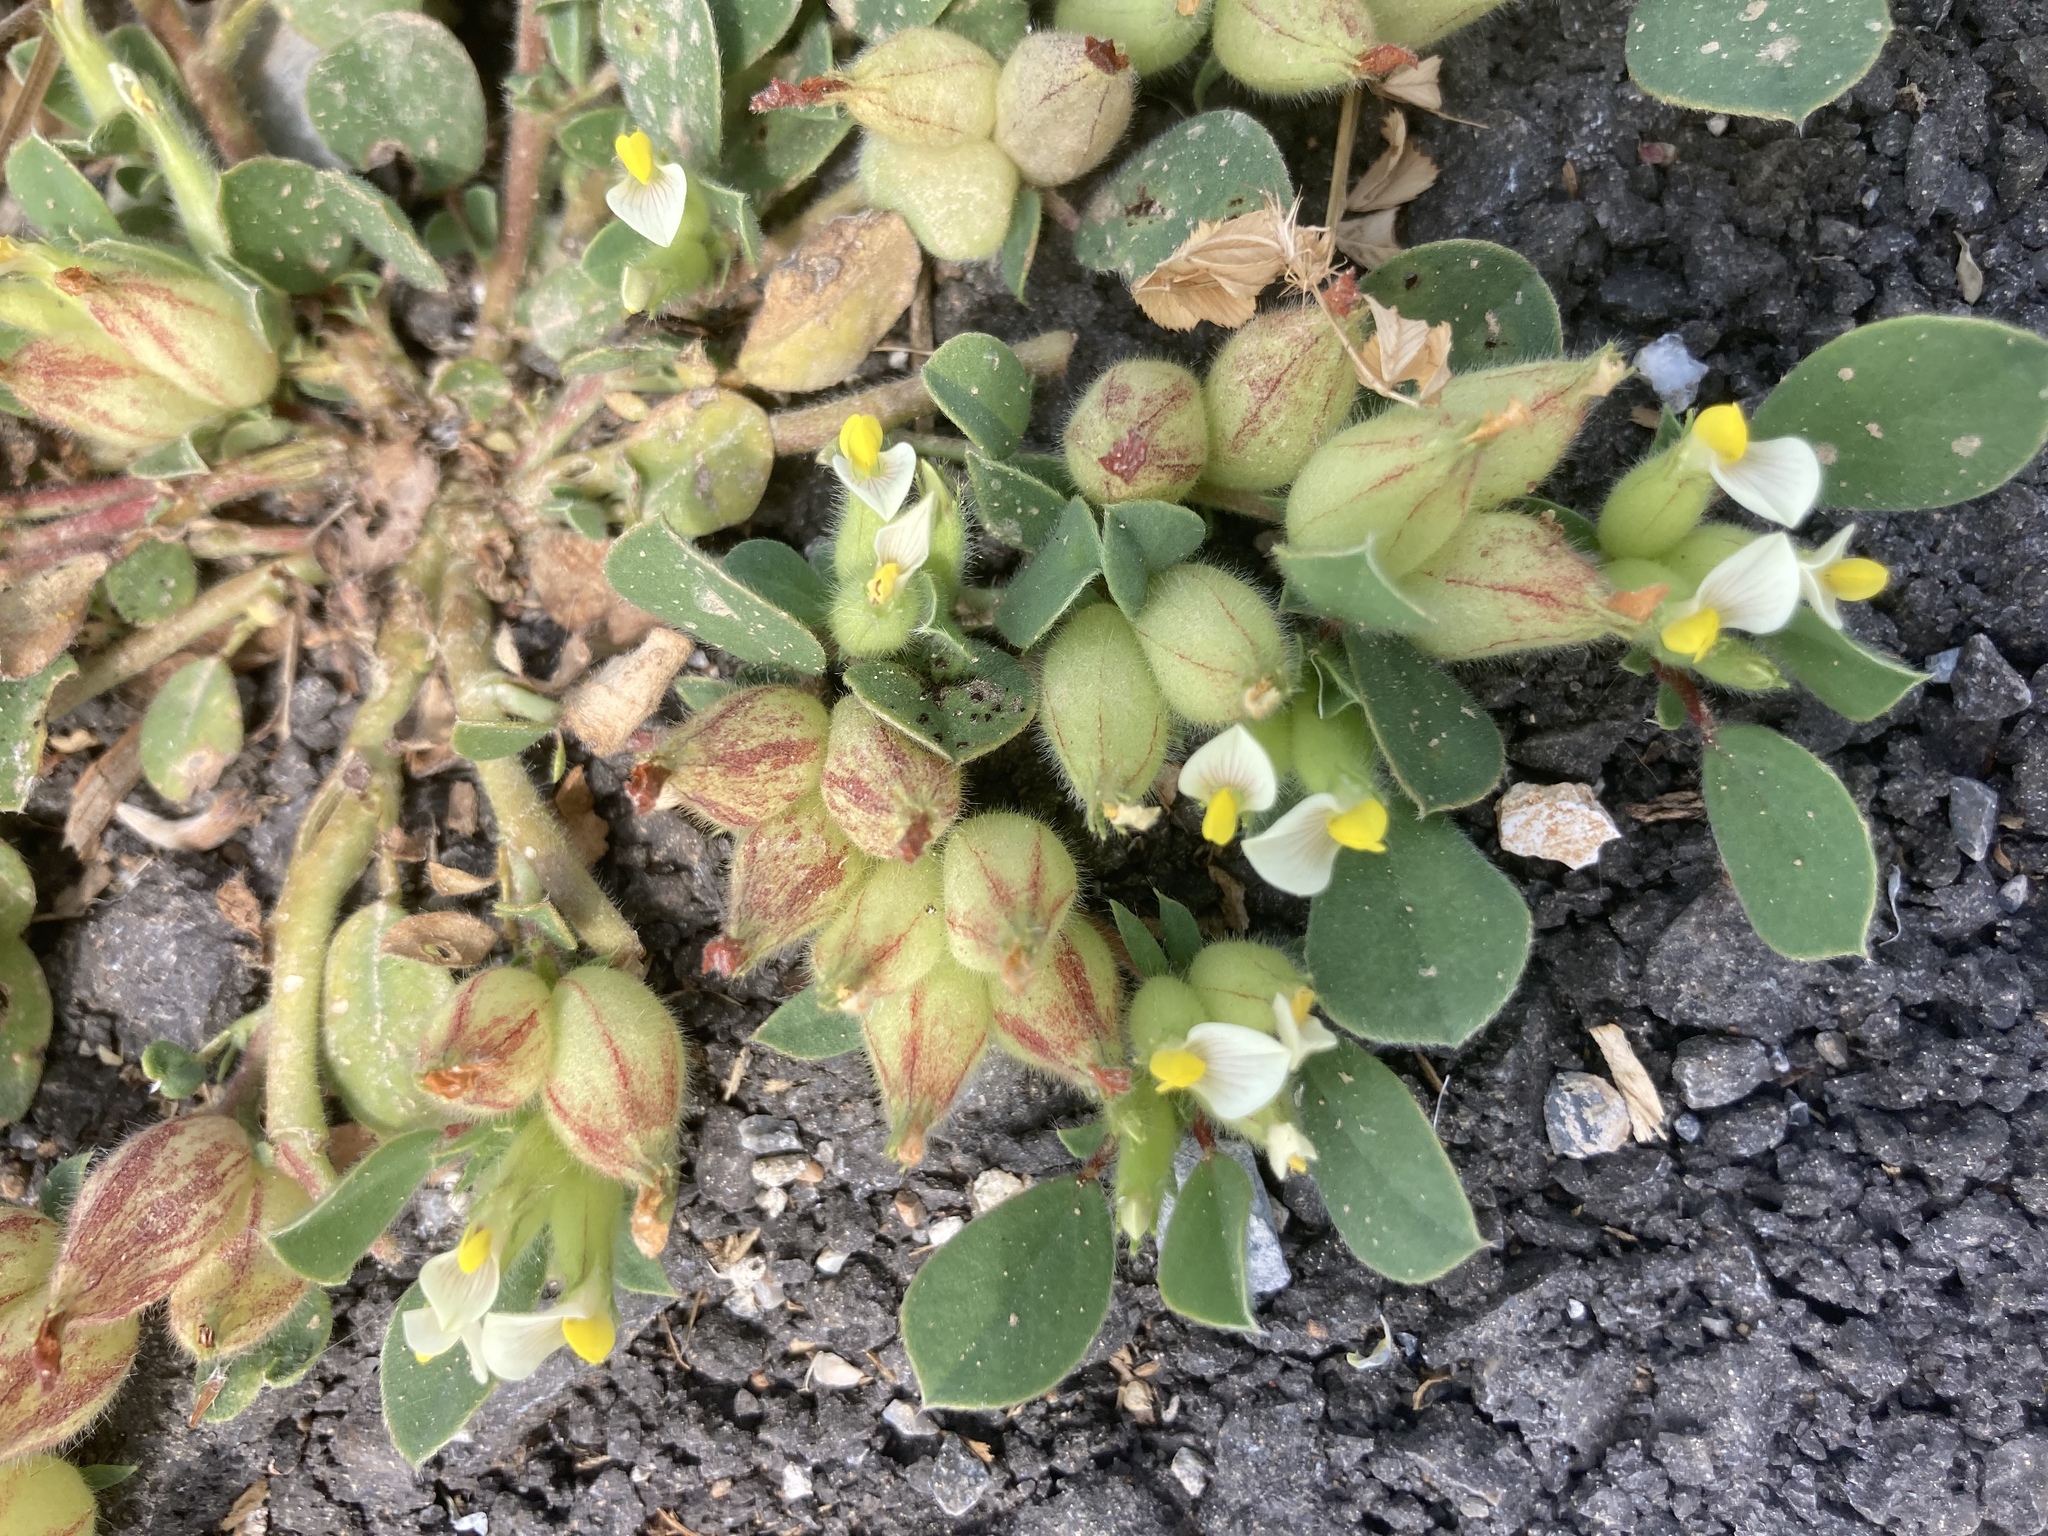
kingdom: Plantae
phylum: Tracheophyta
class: Magnoliopsida
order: Fabales
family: Fabaceae
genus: Tripodion
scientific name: Tripodion tetraphyllum
